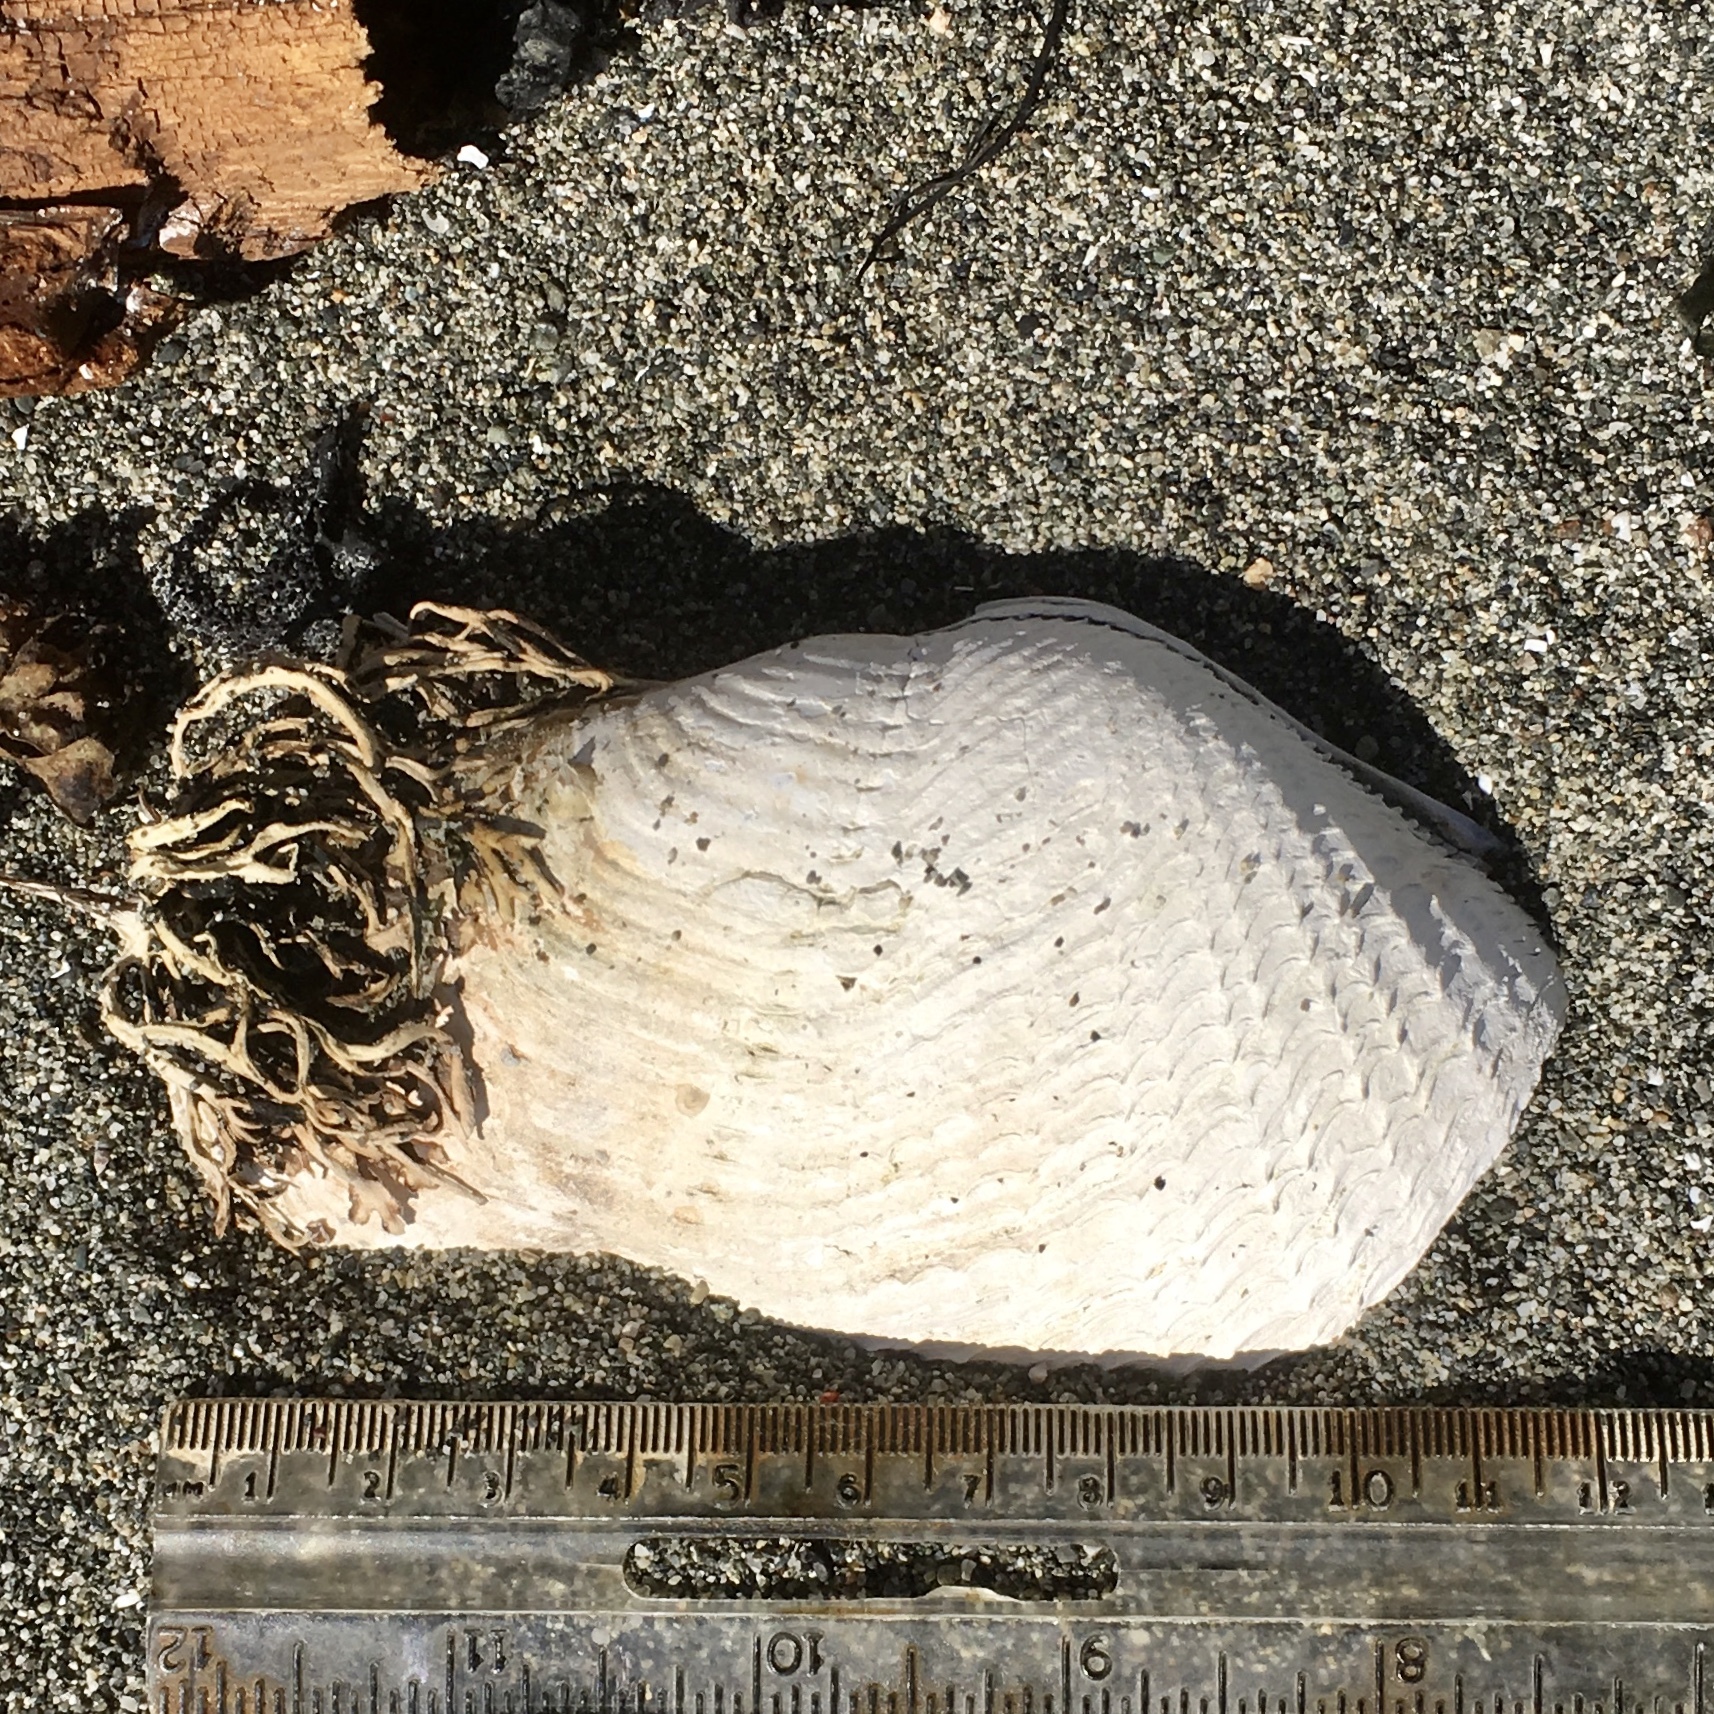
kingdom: Animalia
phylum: Mollusca
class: Bivalvia
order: Myida
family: Pholadidae
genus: Zirfaea
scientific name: Zirfaea pilsbryi
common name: Rough piddock
